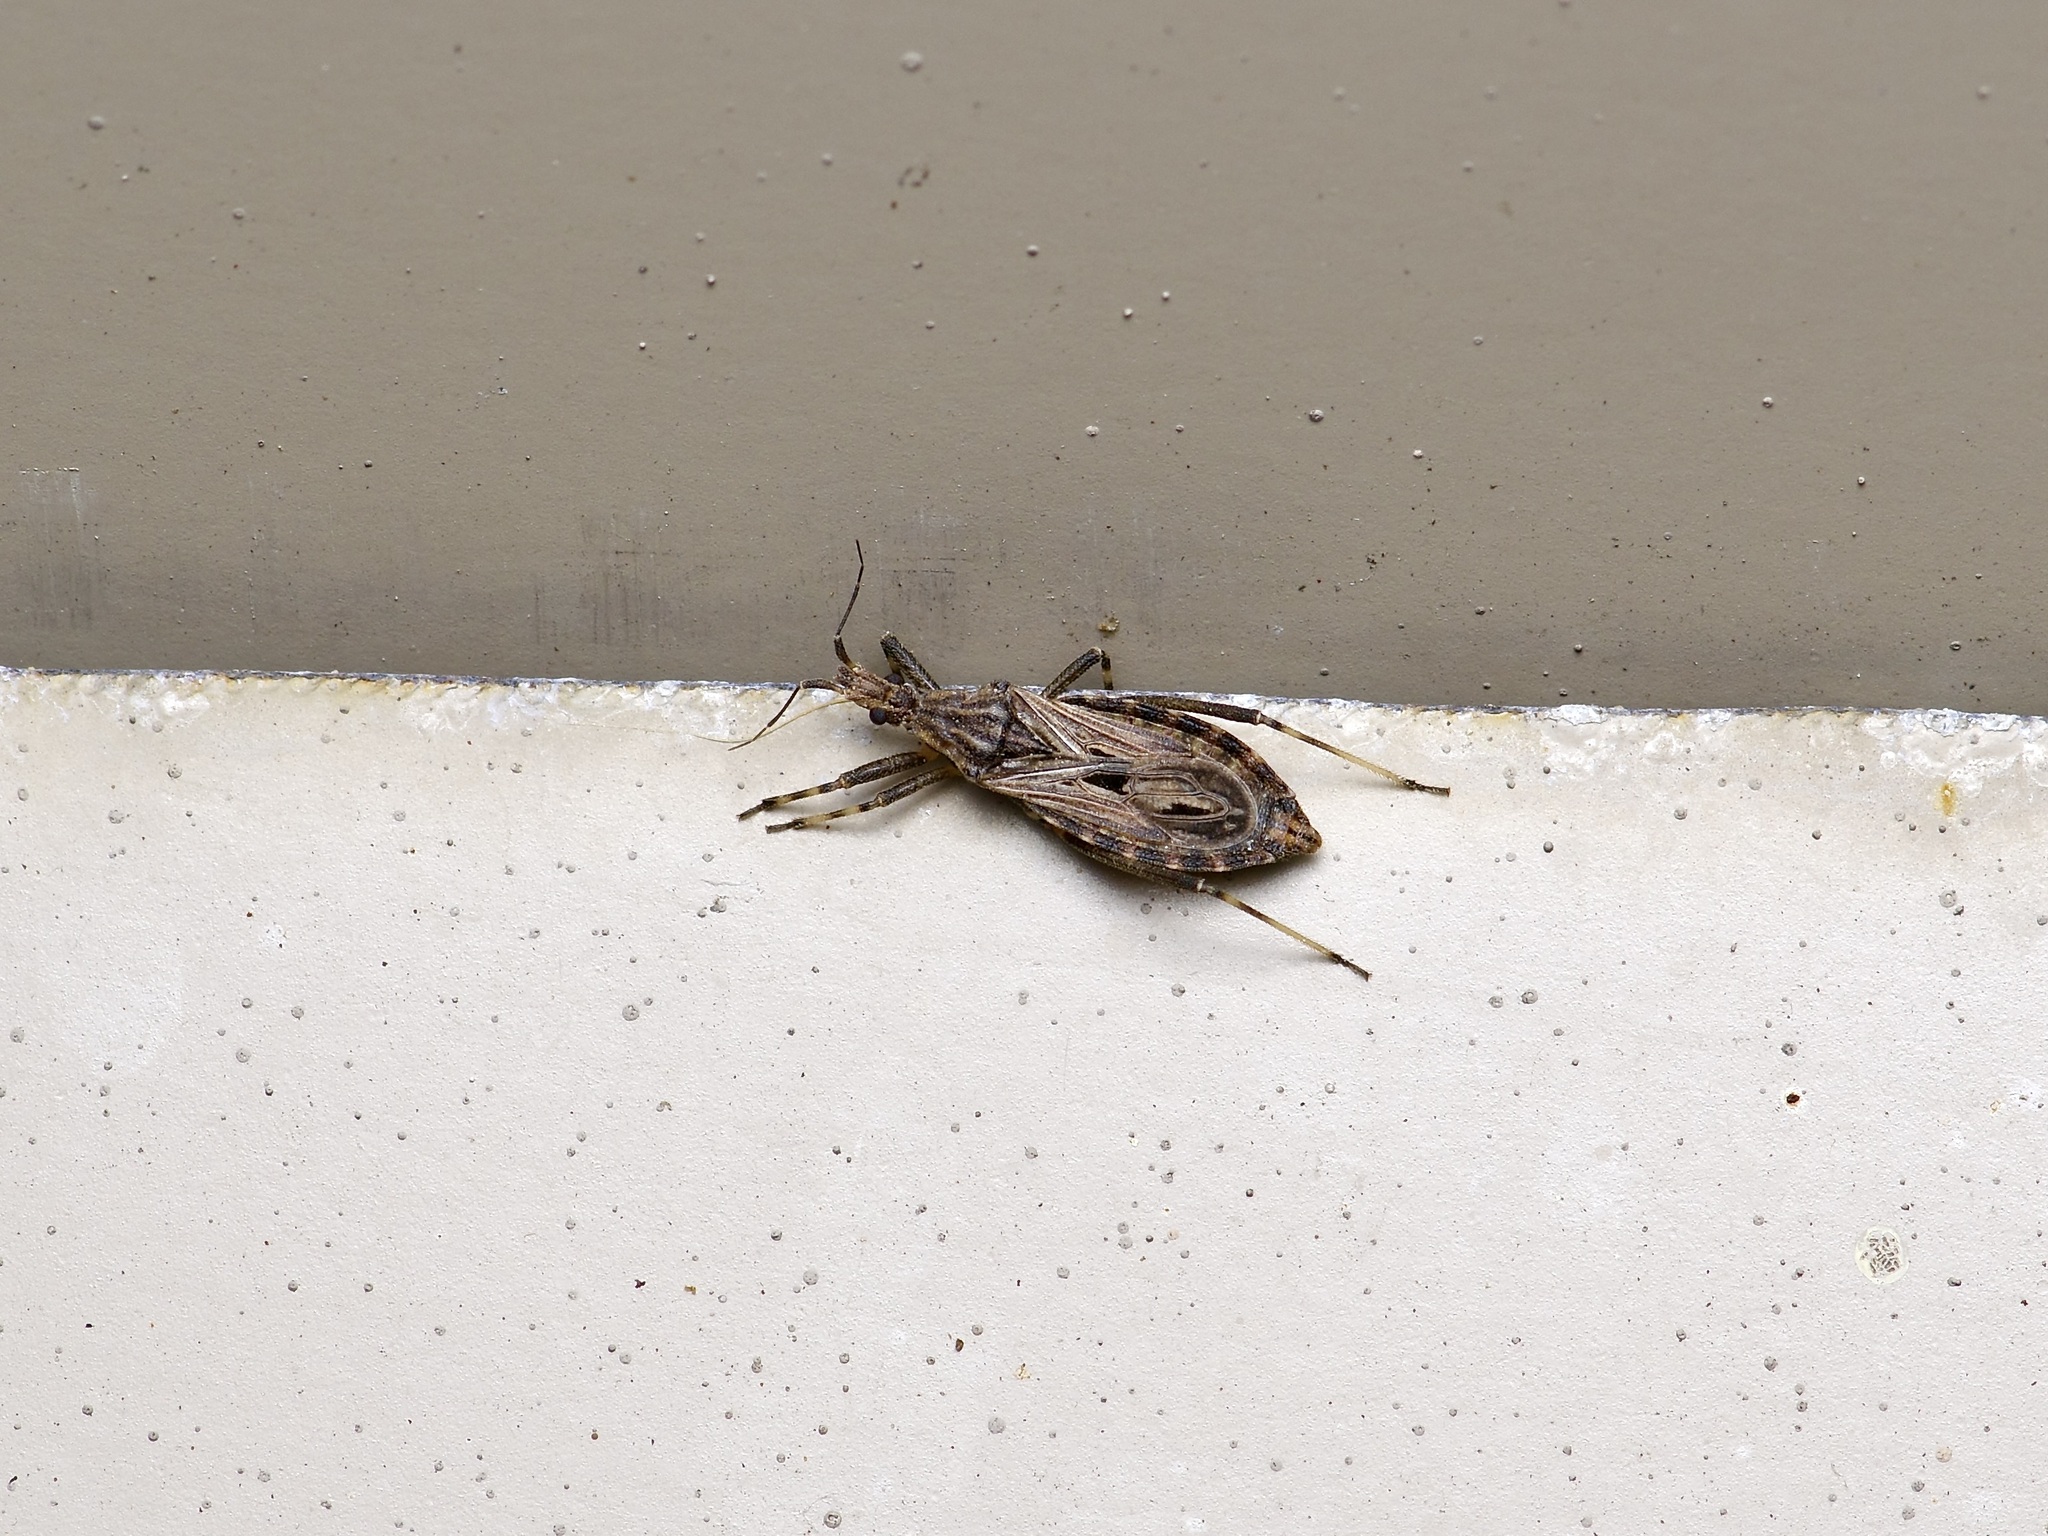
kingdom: Animalia
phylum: Arthropoda
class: Insecta
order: Hemiptera
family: Reduviidae
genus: Oncocephalus
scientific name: Oncocephalus geniculatus
